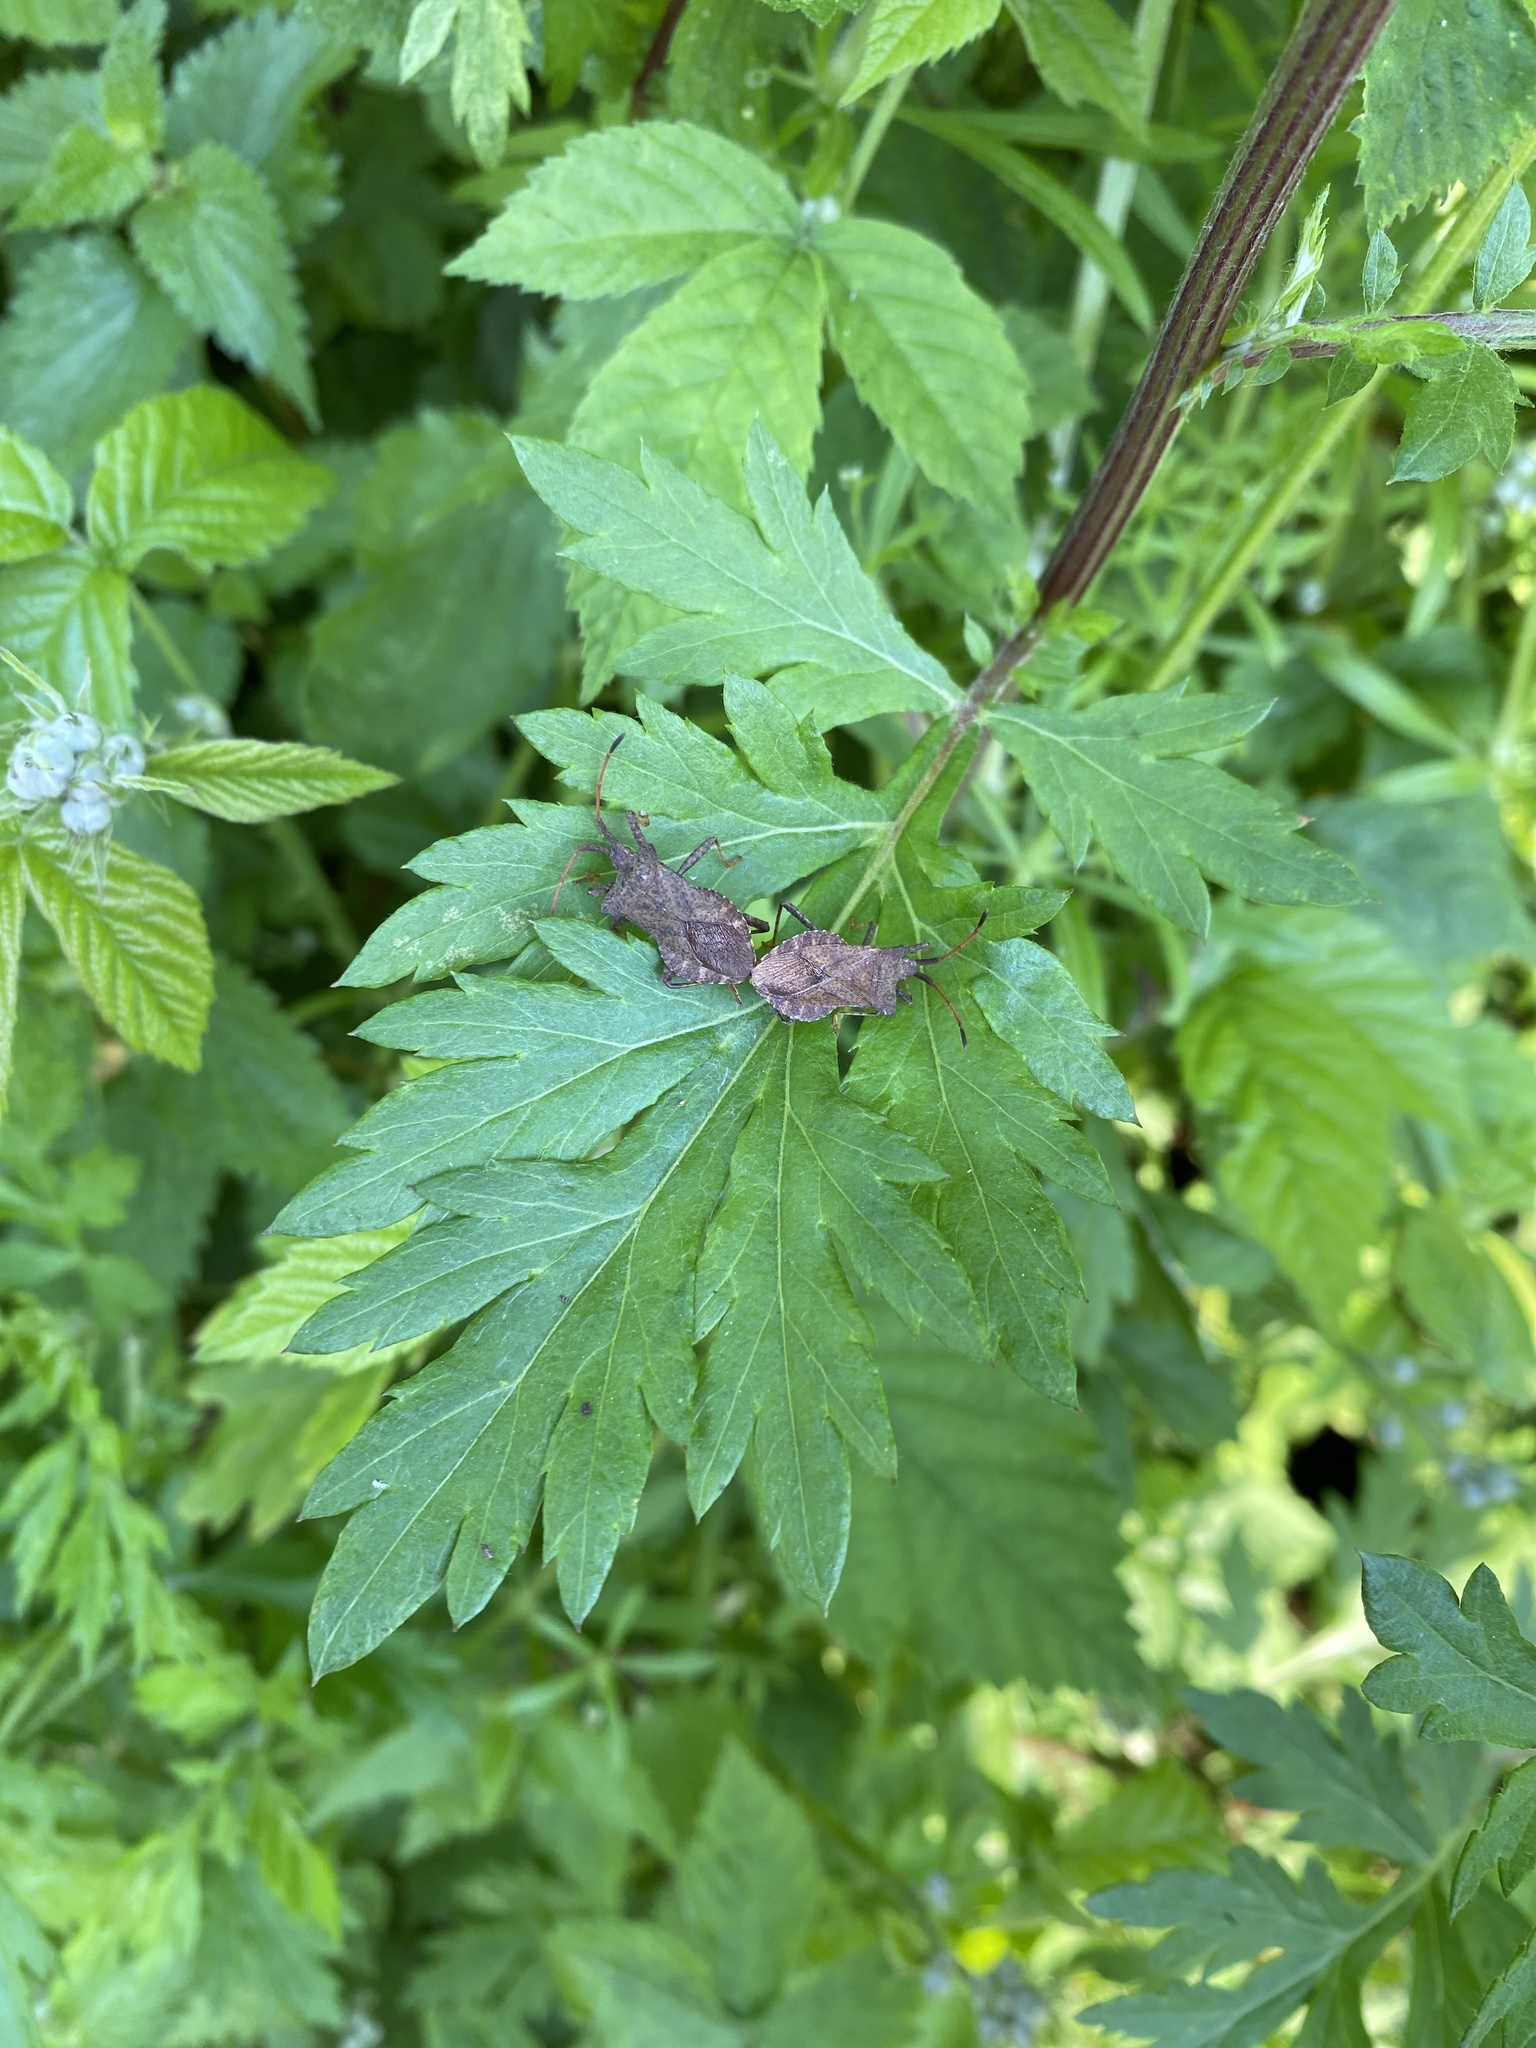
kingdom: Animalia
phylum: Arthropoda
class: Insecta
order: Hemiptera
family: Coreidae
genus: Coreus
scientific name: Coreus marginatus
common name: Dock bug
